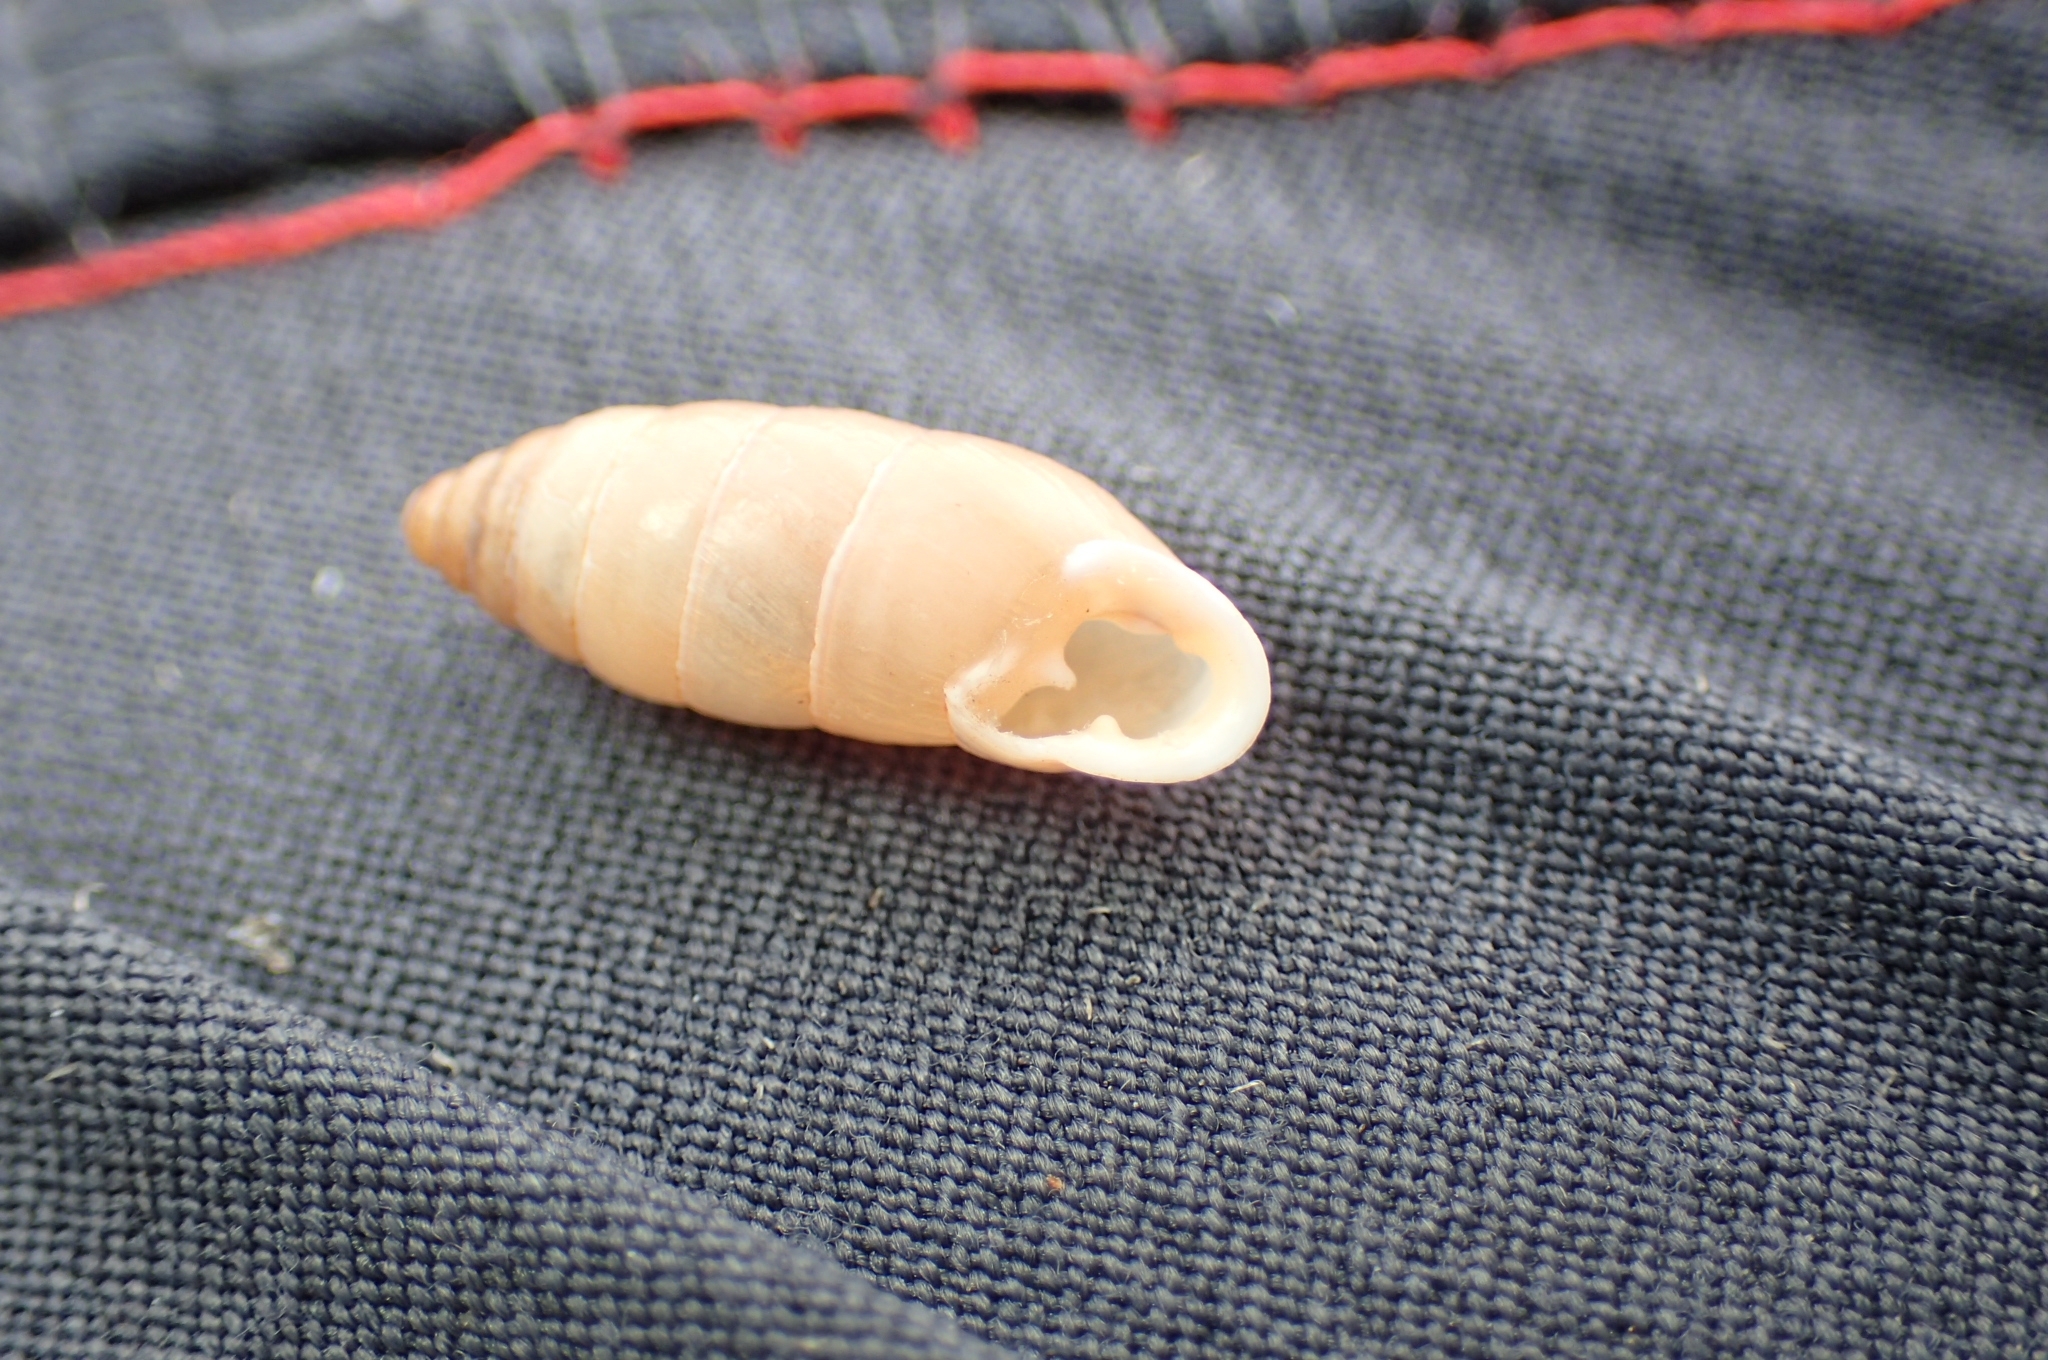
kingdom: Animalia
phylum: Mollusca
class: Gastropoda
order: Stylommatophora
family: Enidae
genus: Jaminia
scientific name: Jaminia quadridens
